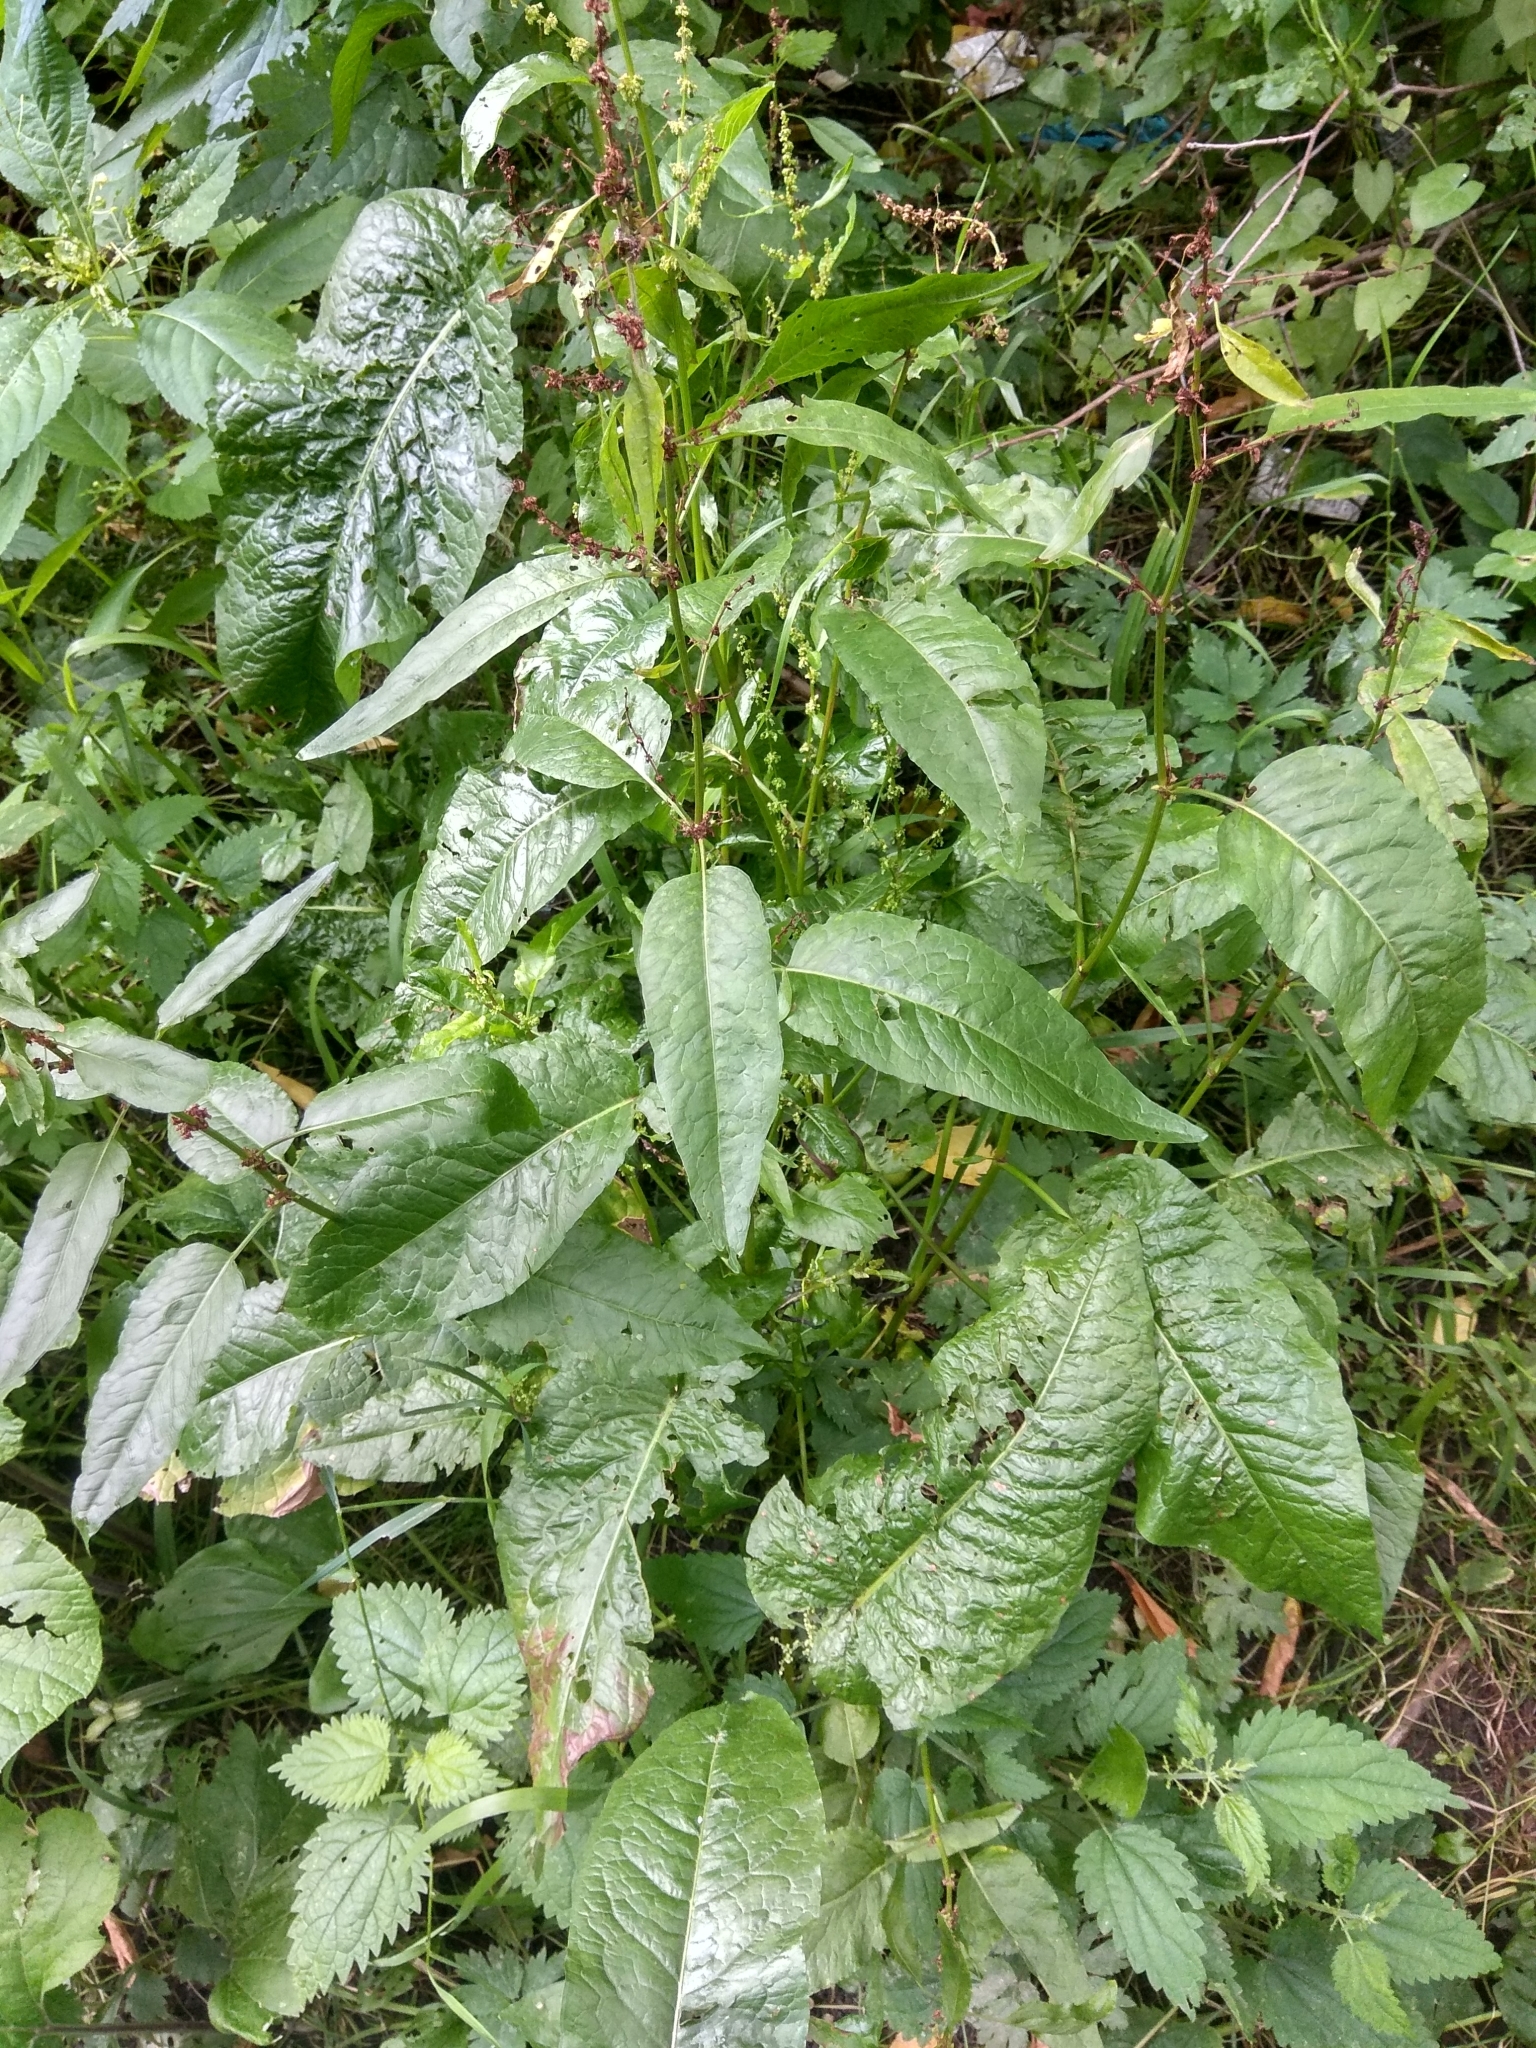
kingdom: Plantae
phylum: Tracheophyta
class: Magnoliopsida
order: Caryophyllales
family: Polygonaceae
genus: Rumex
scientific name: Rumex obtusifolius
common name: Bitter dock
